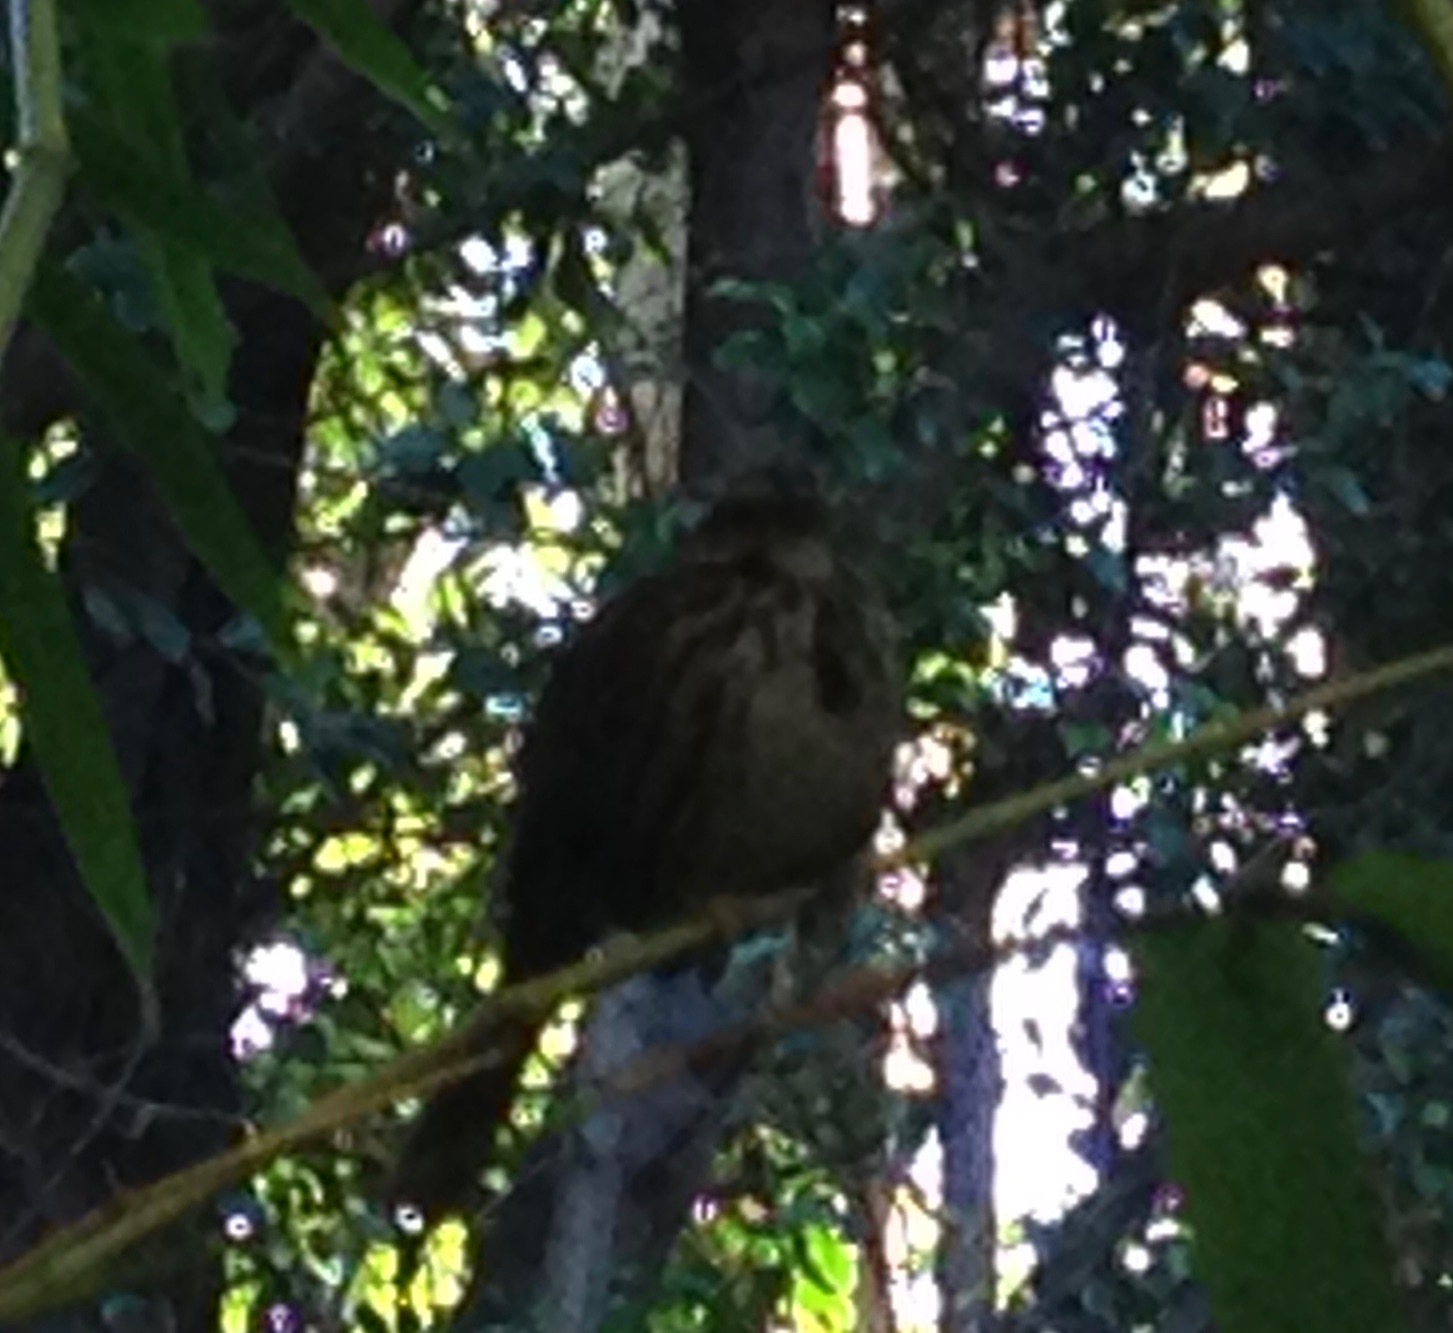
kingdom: Animalia
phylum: Chordata
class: Aves
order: Passeriformes
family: Passerellidae
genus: Melospiza
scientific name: Melospiza melodia
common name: Song sparrow
